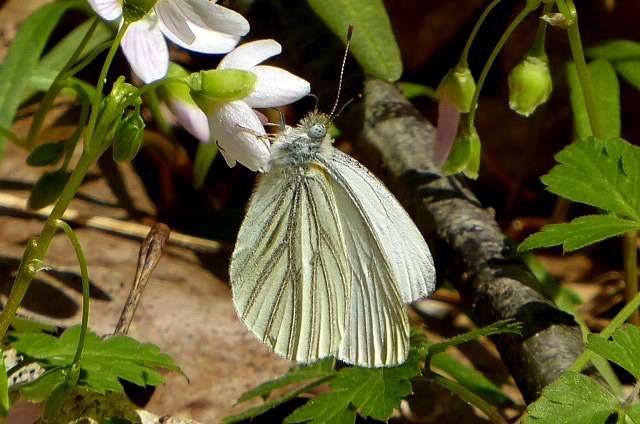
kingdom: Animalia
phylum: Arthropoda
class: Insecta
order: Lepidoptera
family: Pieridae
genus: Pieris
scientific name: Pieris oleracea
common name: Mustard white
